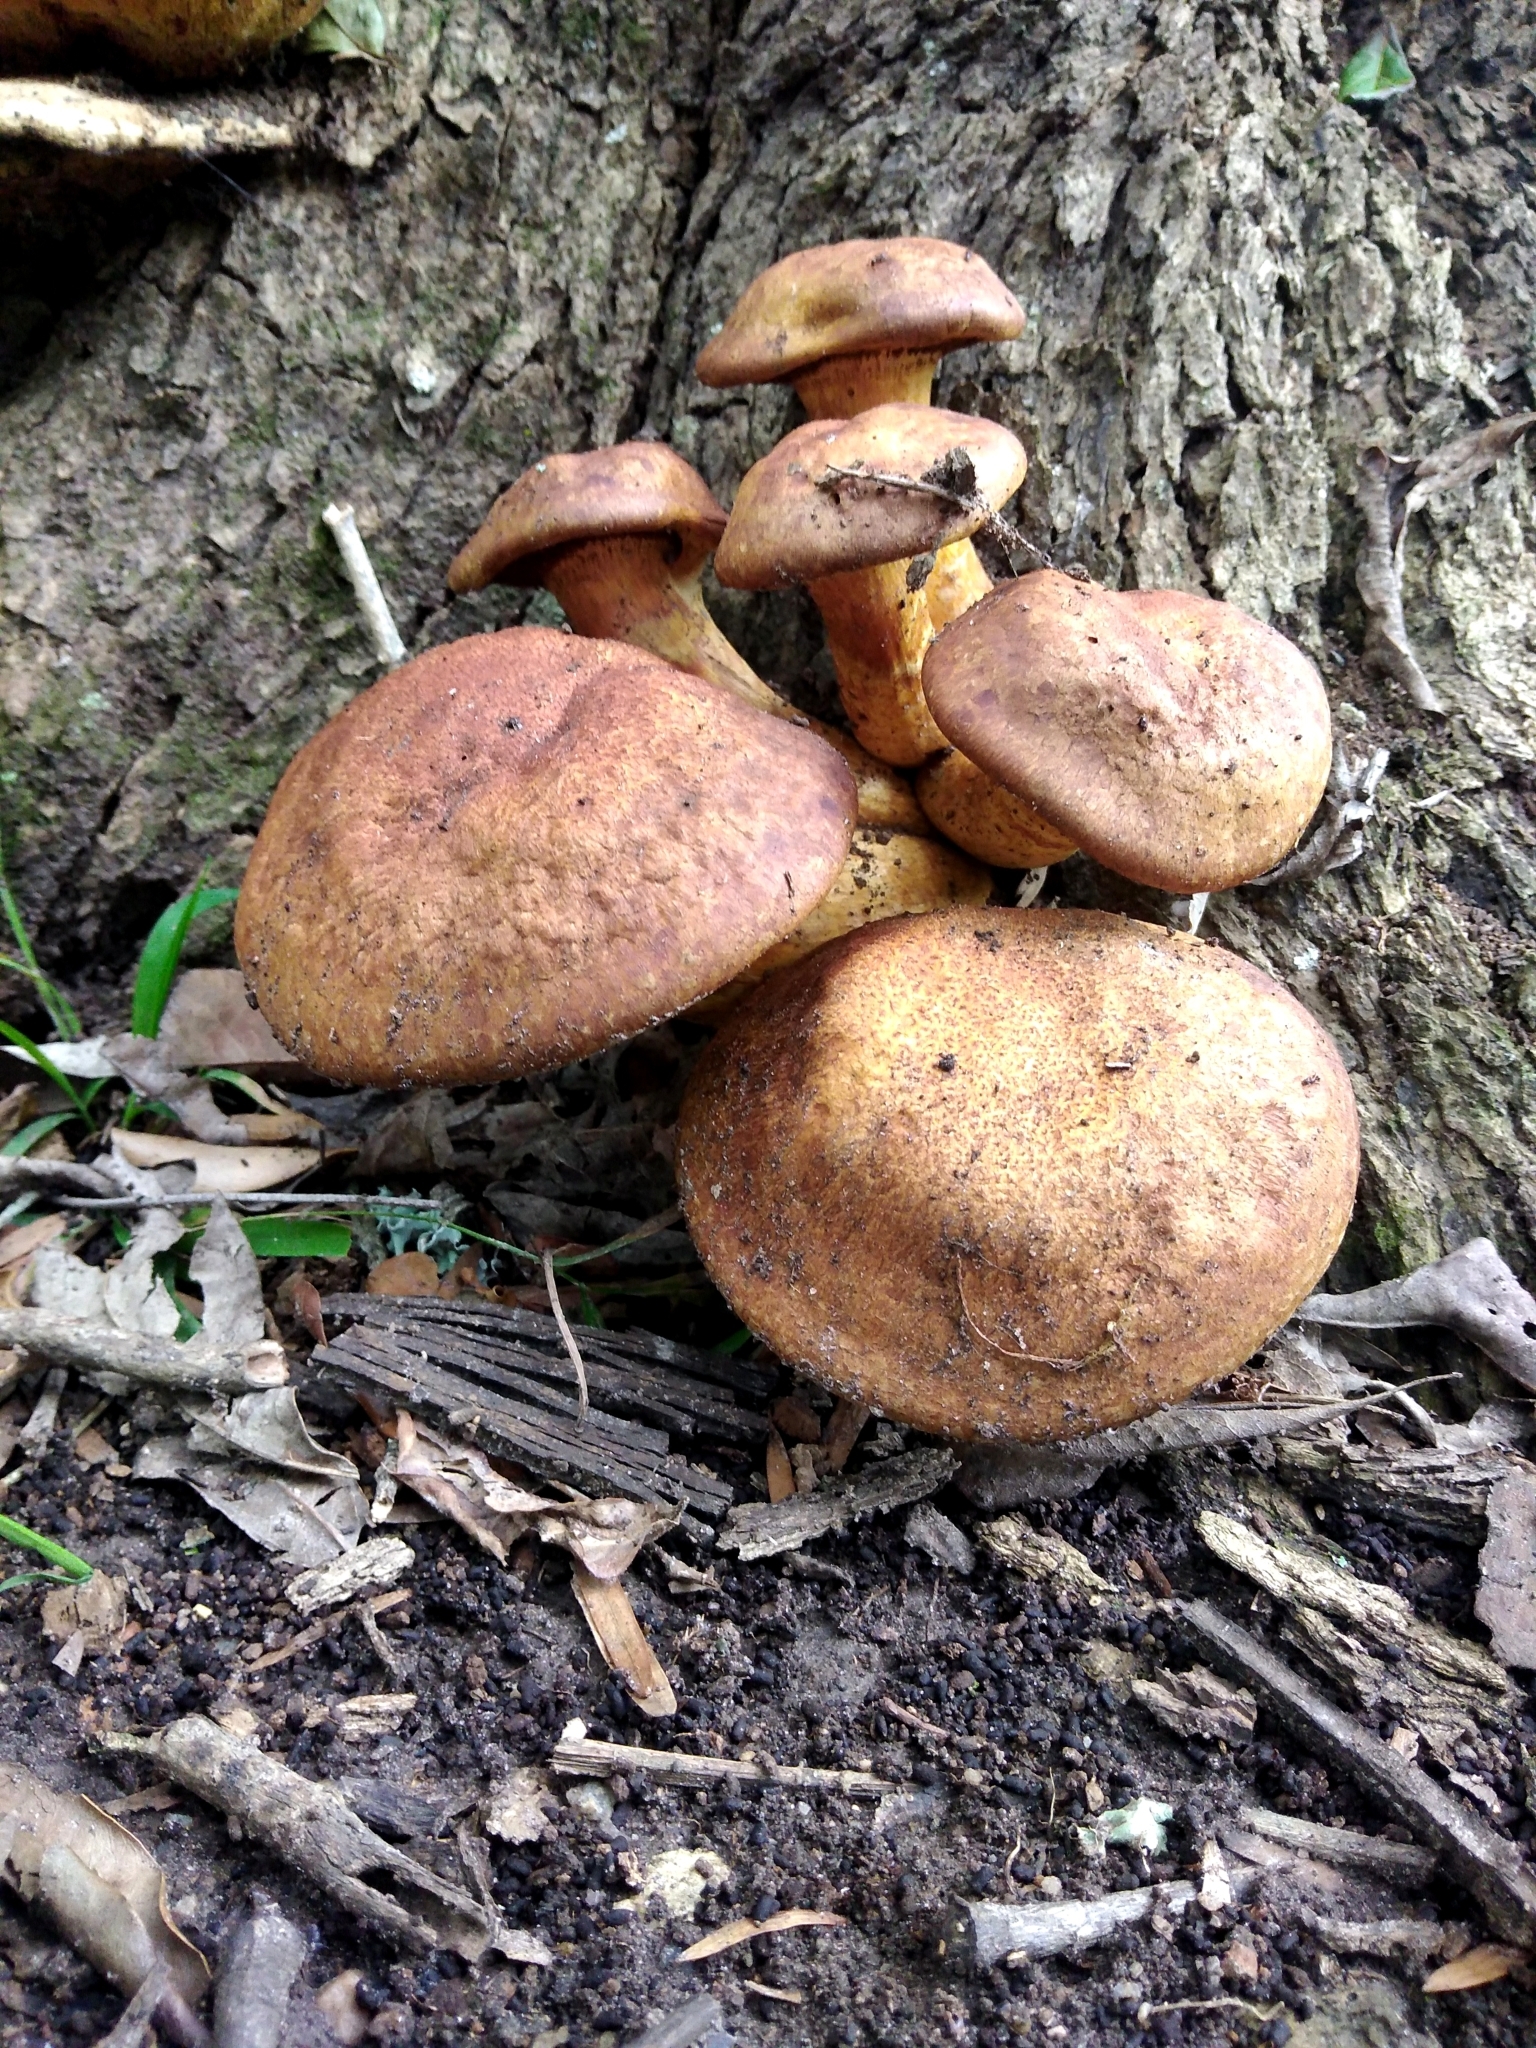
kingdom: Fungi
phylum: Basidiomycota
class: Agaricomycetes
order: Agaricales
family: Hymenogastraceae
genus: Gymnopilus
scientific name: Gymnopilus junonius
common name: Spectacular rustgill
